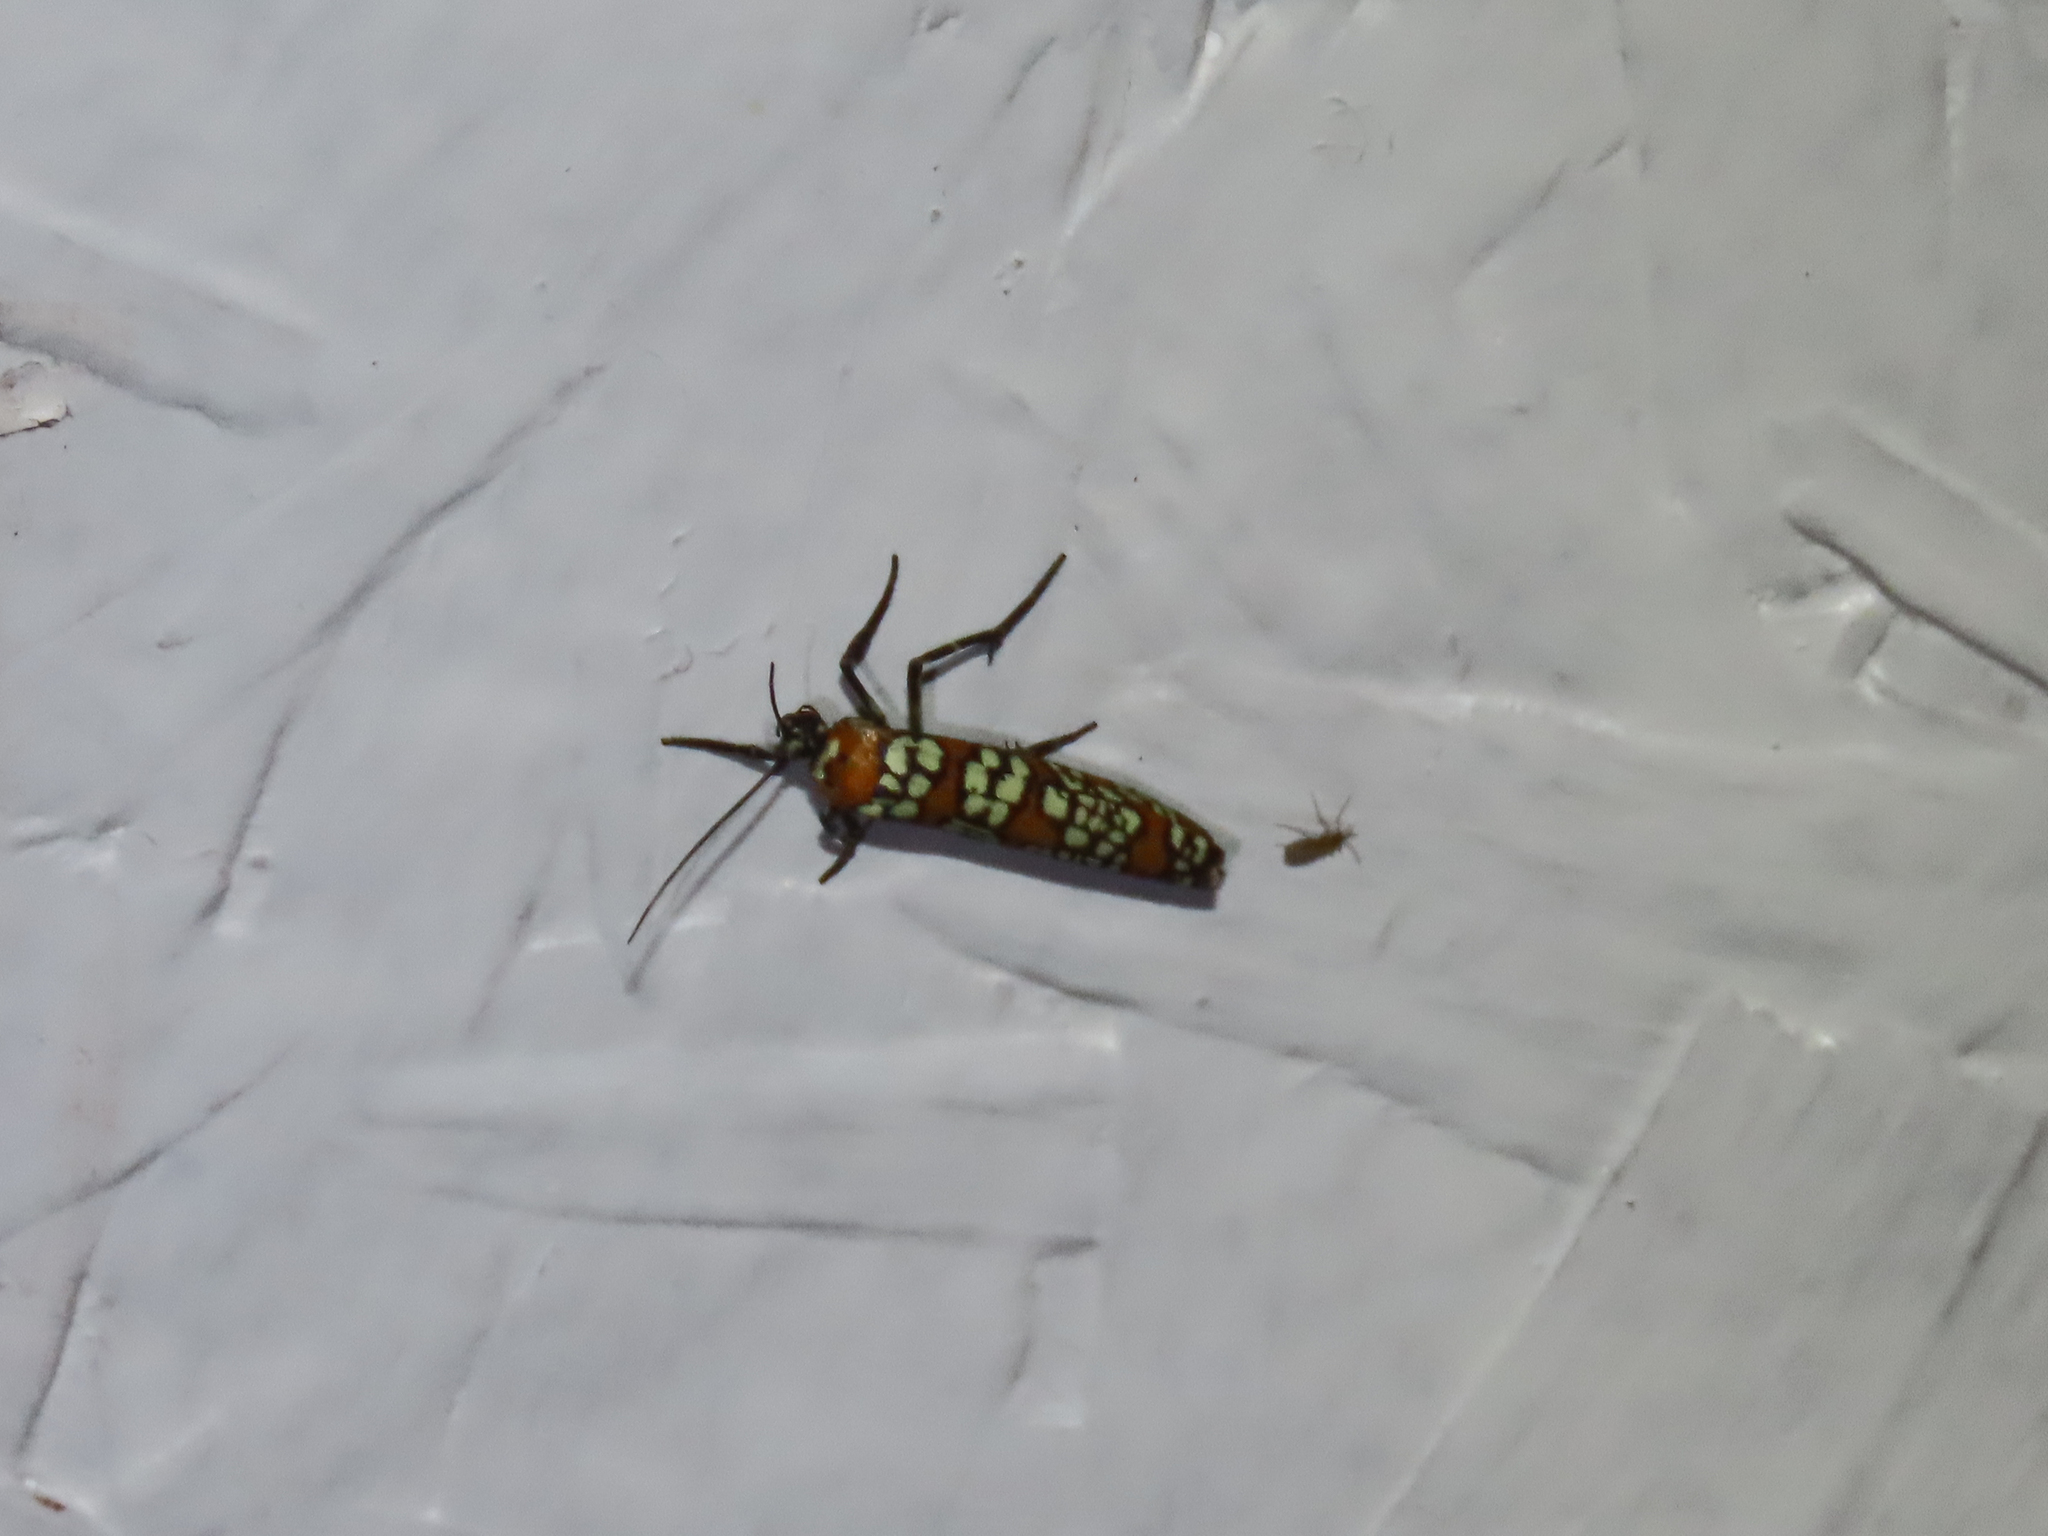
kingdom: Animalia
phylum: Arthropoda
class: Insecta
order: Lepidoptera
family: Attevidae
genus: Atteva
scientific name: Atteva punctella
